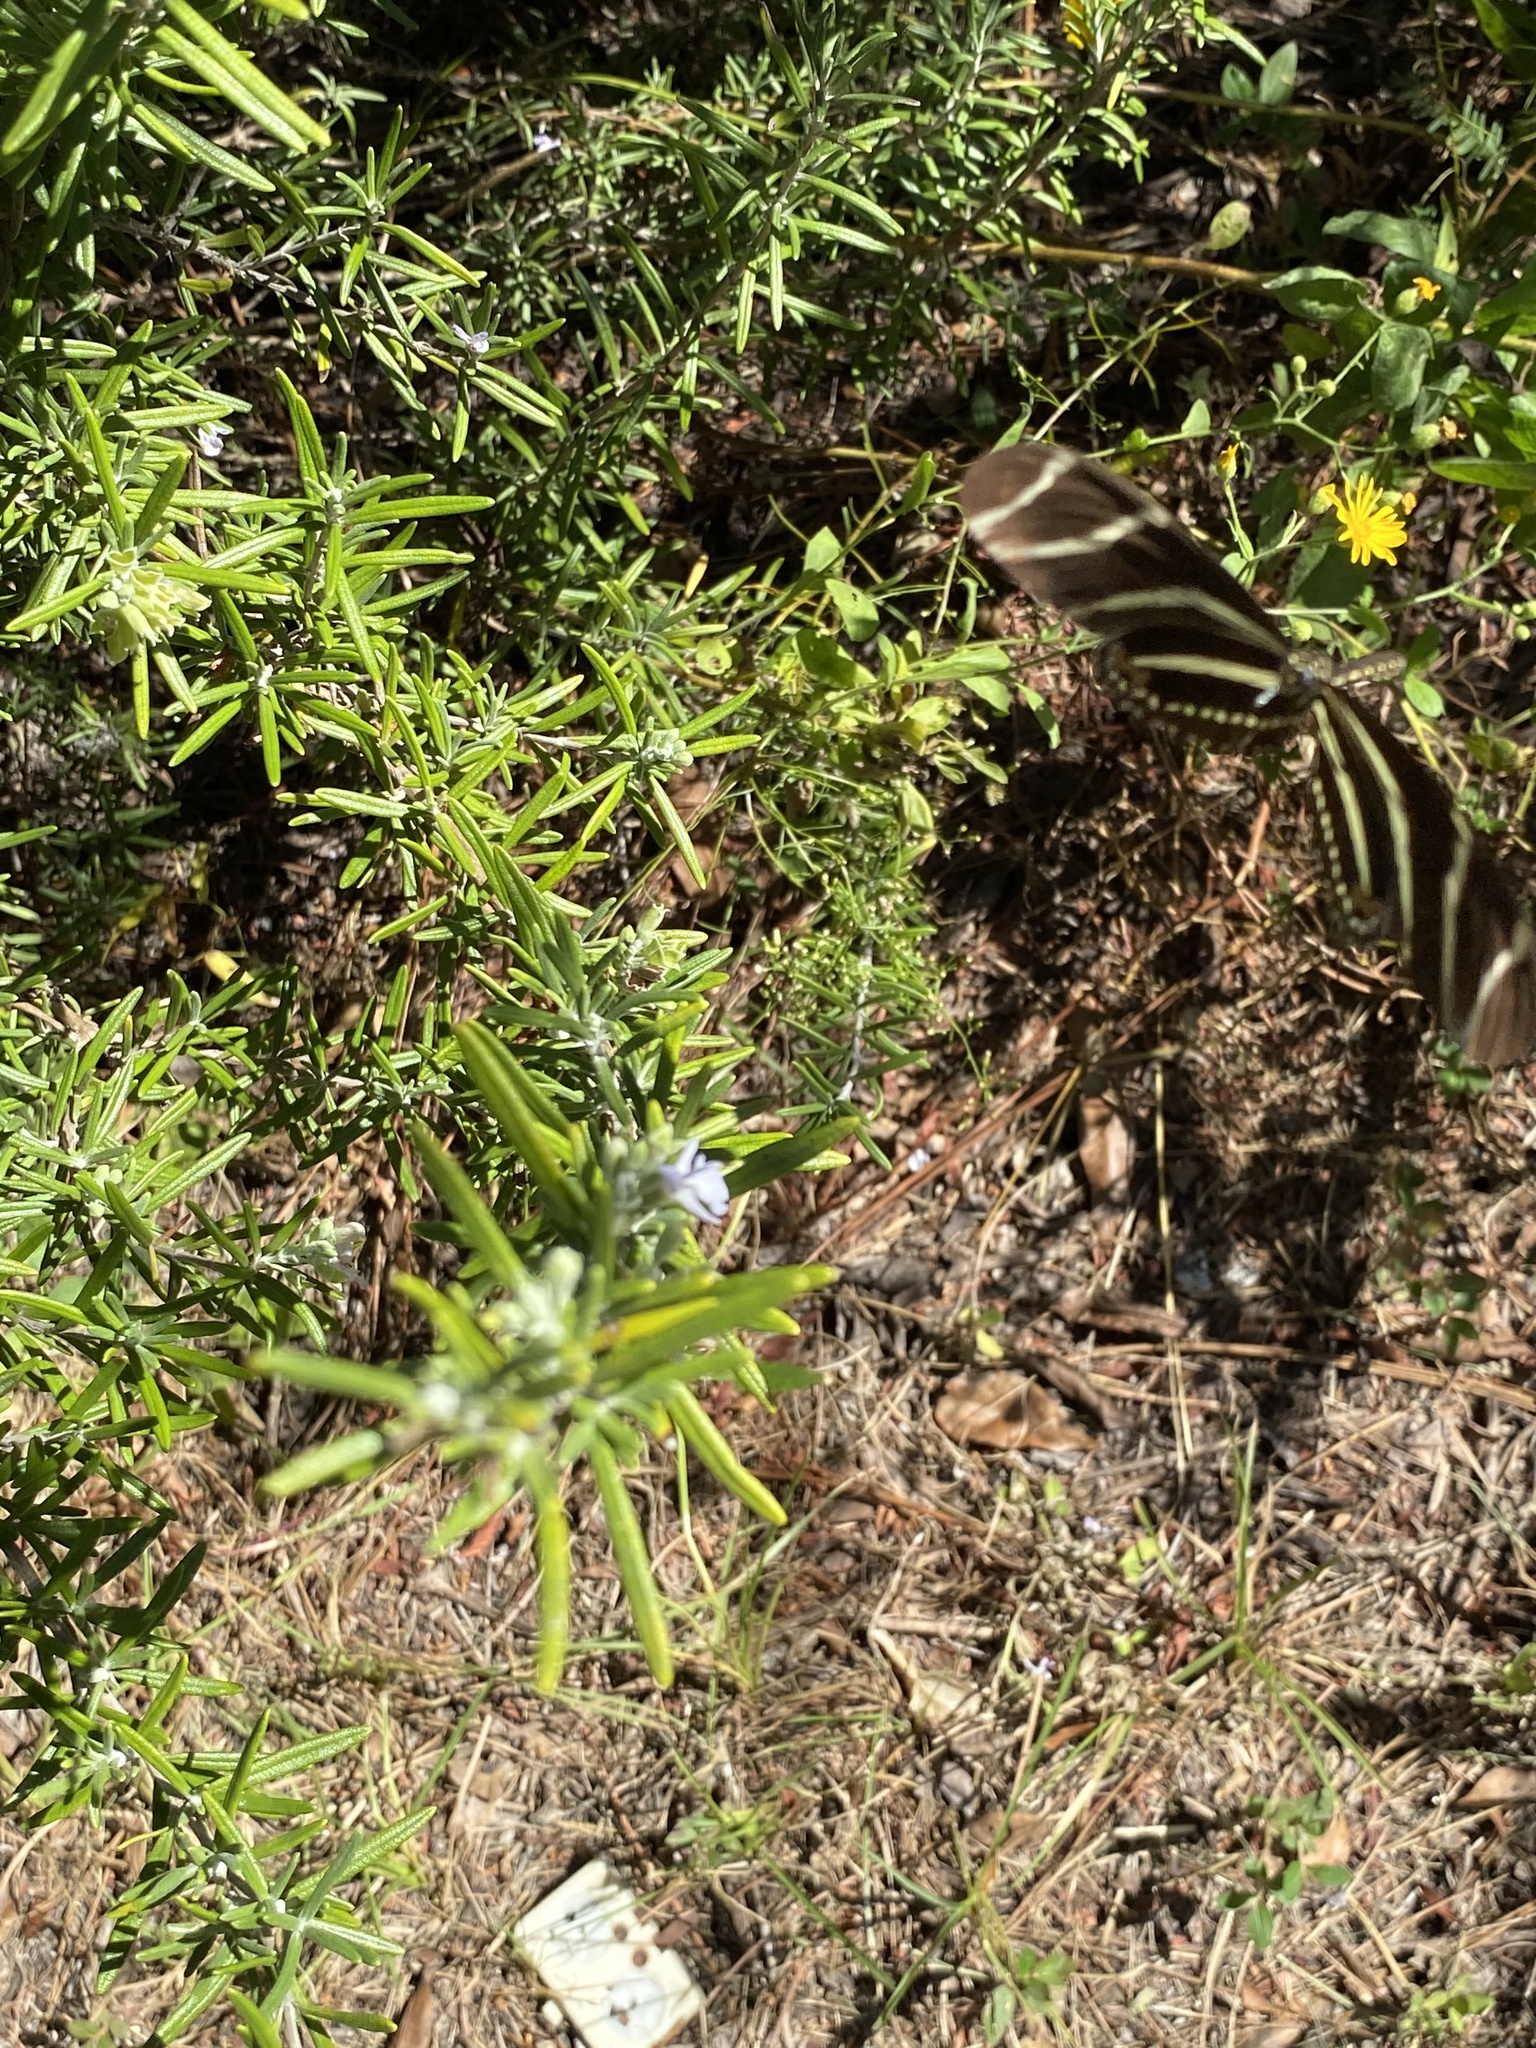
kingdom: Animalia
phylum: Arthropoda
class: Insecta
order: Lepidoptera
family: Nymphalidae
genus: Heliconius
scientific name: Heliconius charithonia
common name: Zebra long wing
